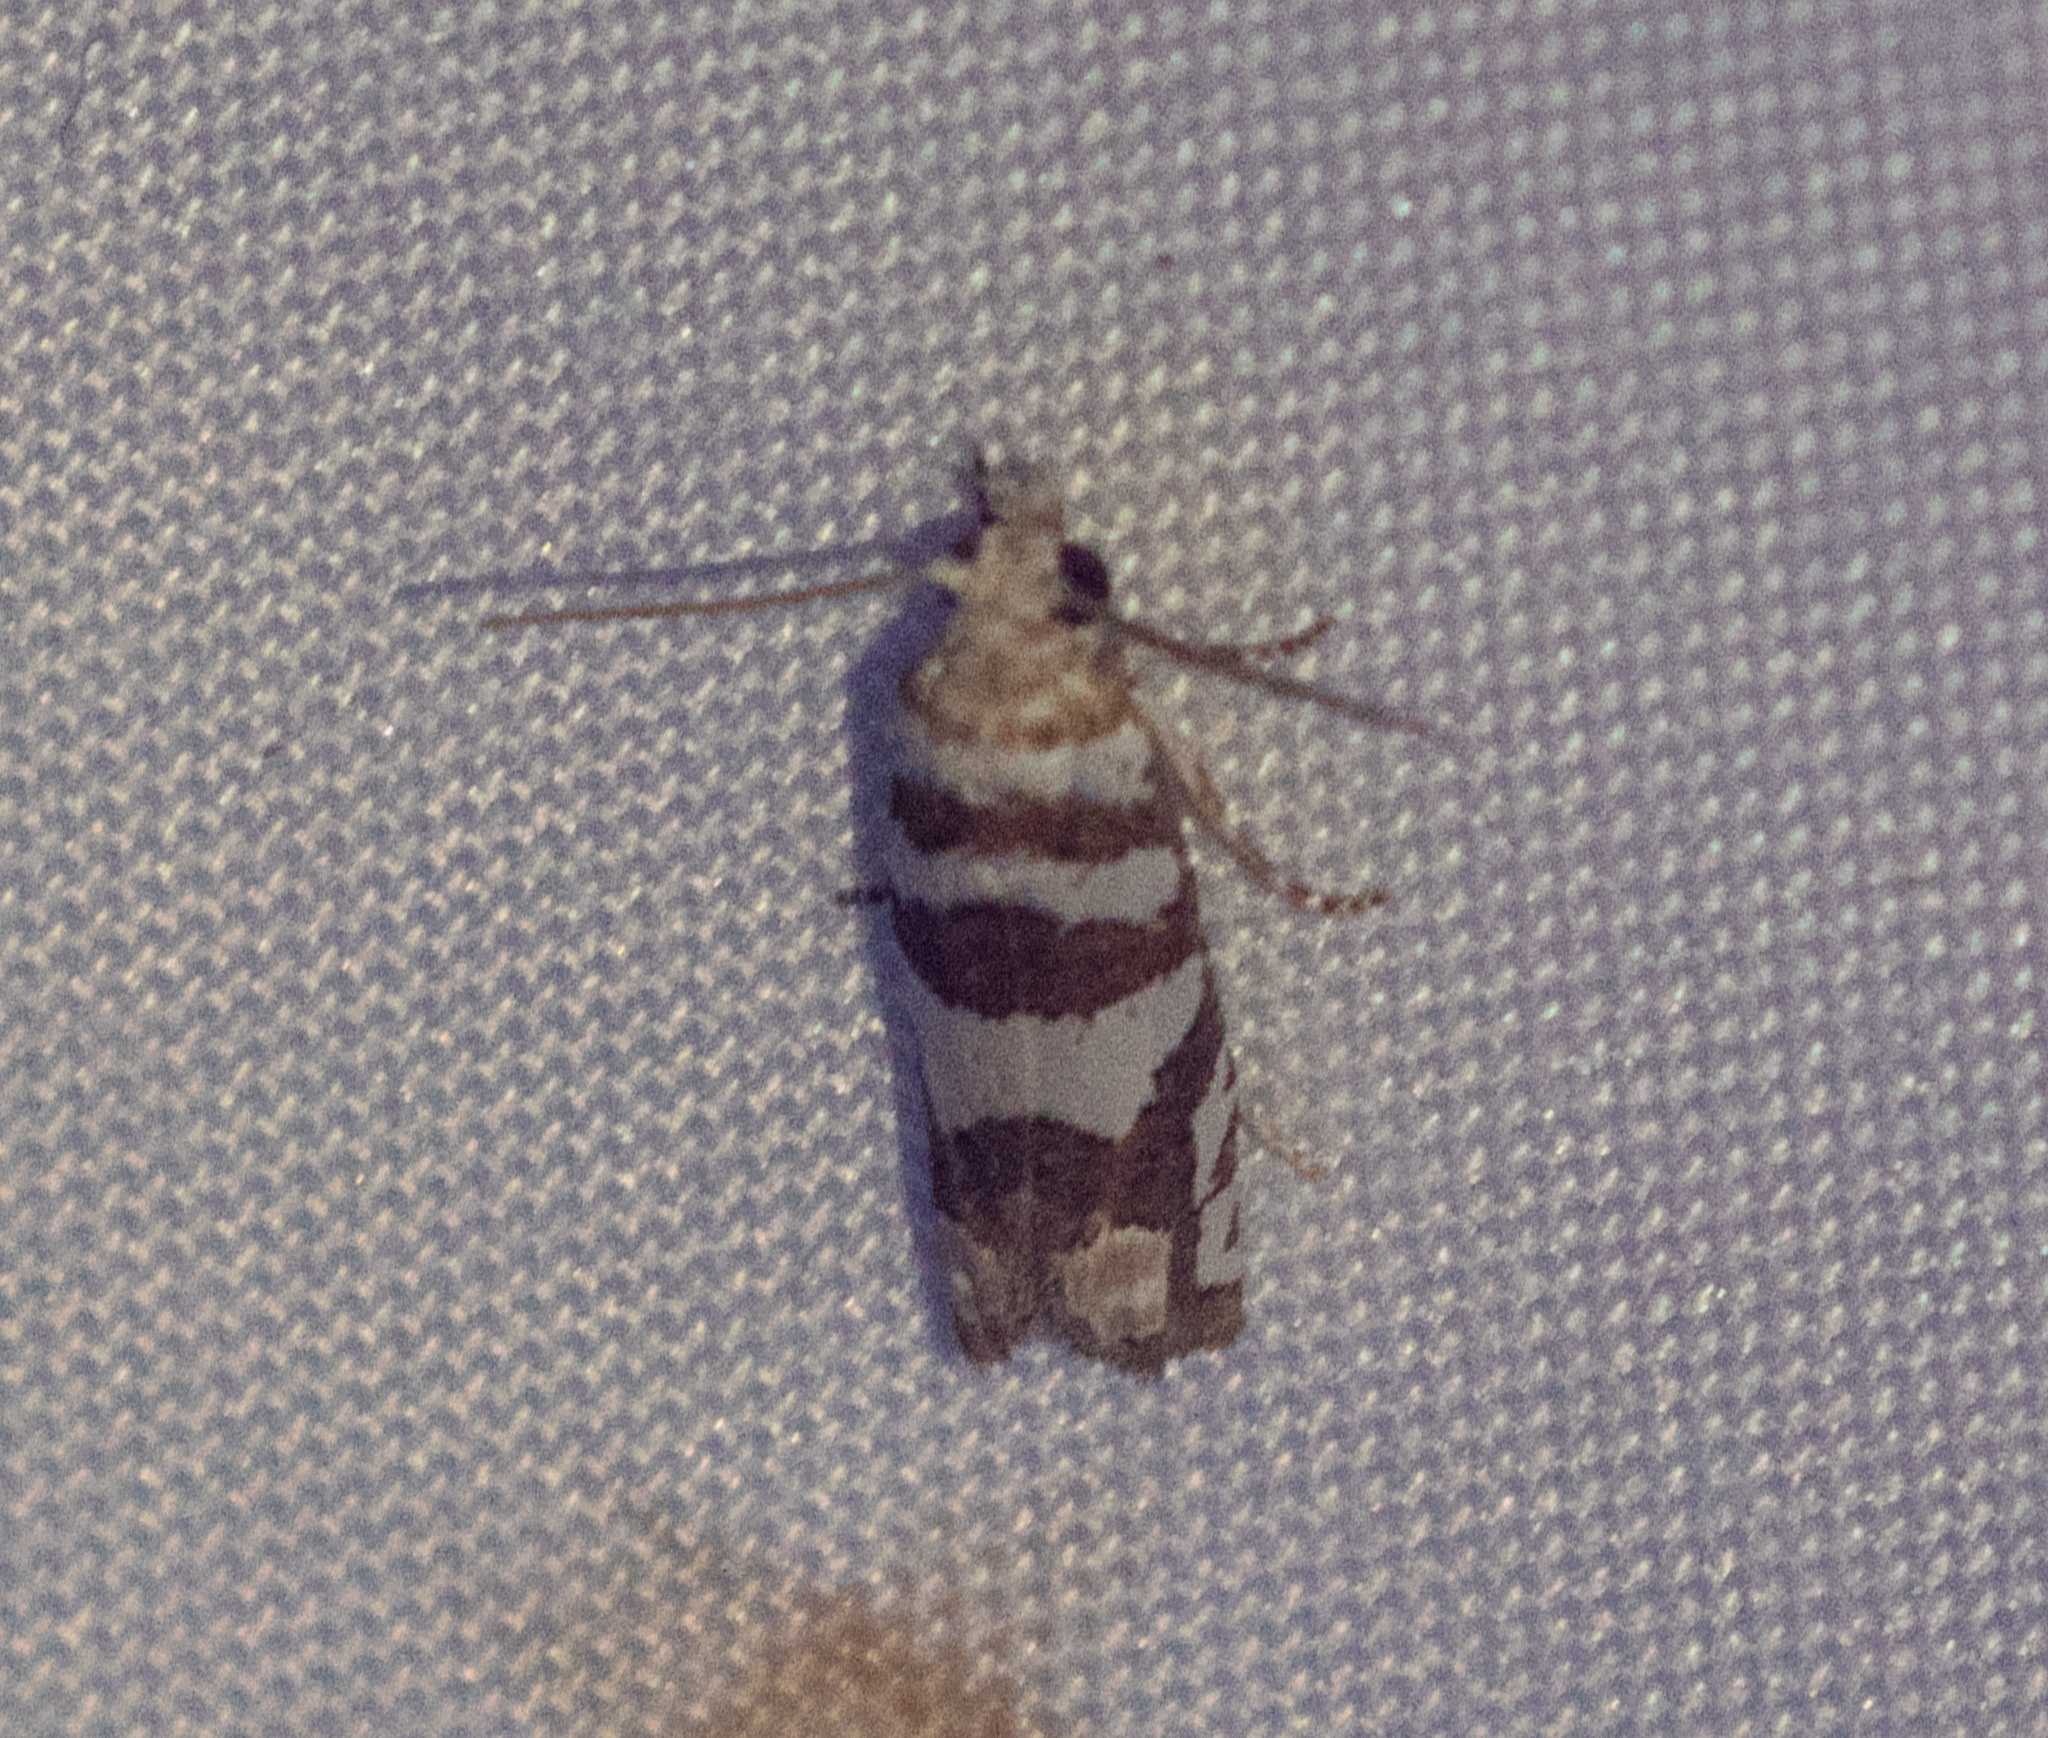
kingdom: Animalia
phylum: Arthropoda
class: Insecta
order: Lepidoptera
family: Tortricidae
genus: Pelochrista
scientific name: Pelochrista robinsonana
